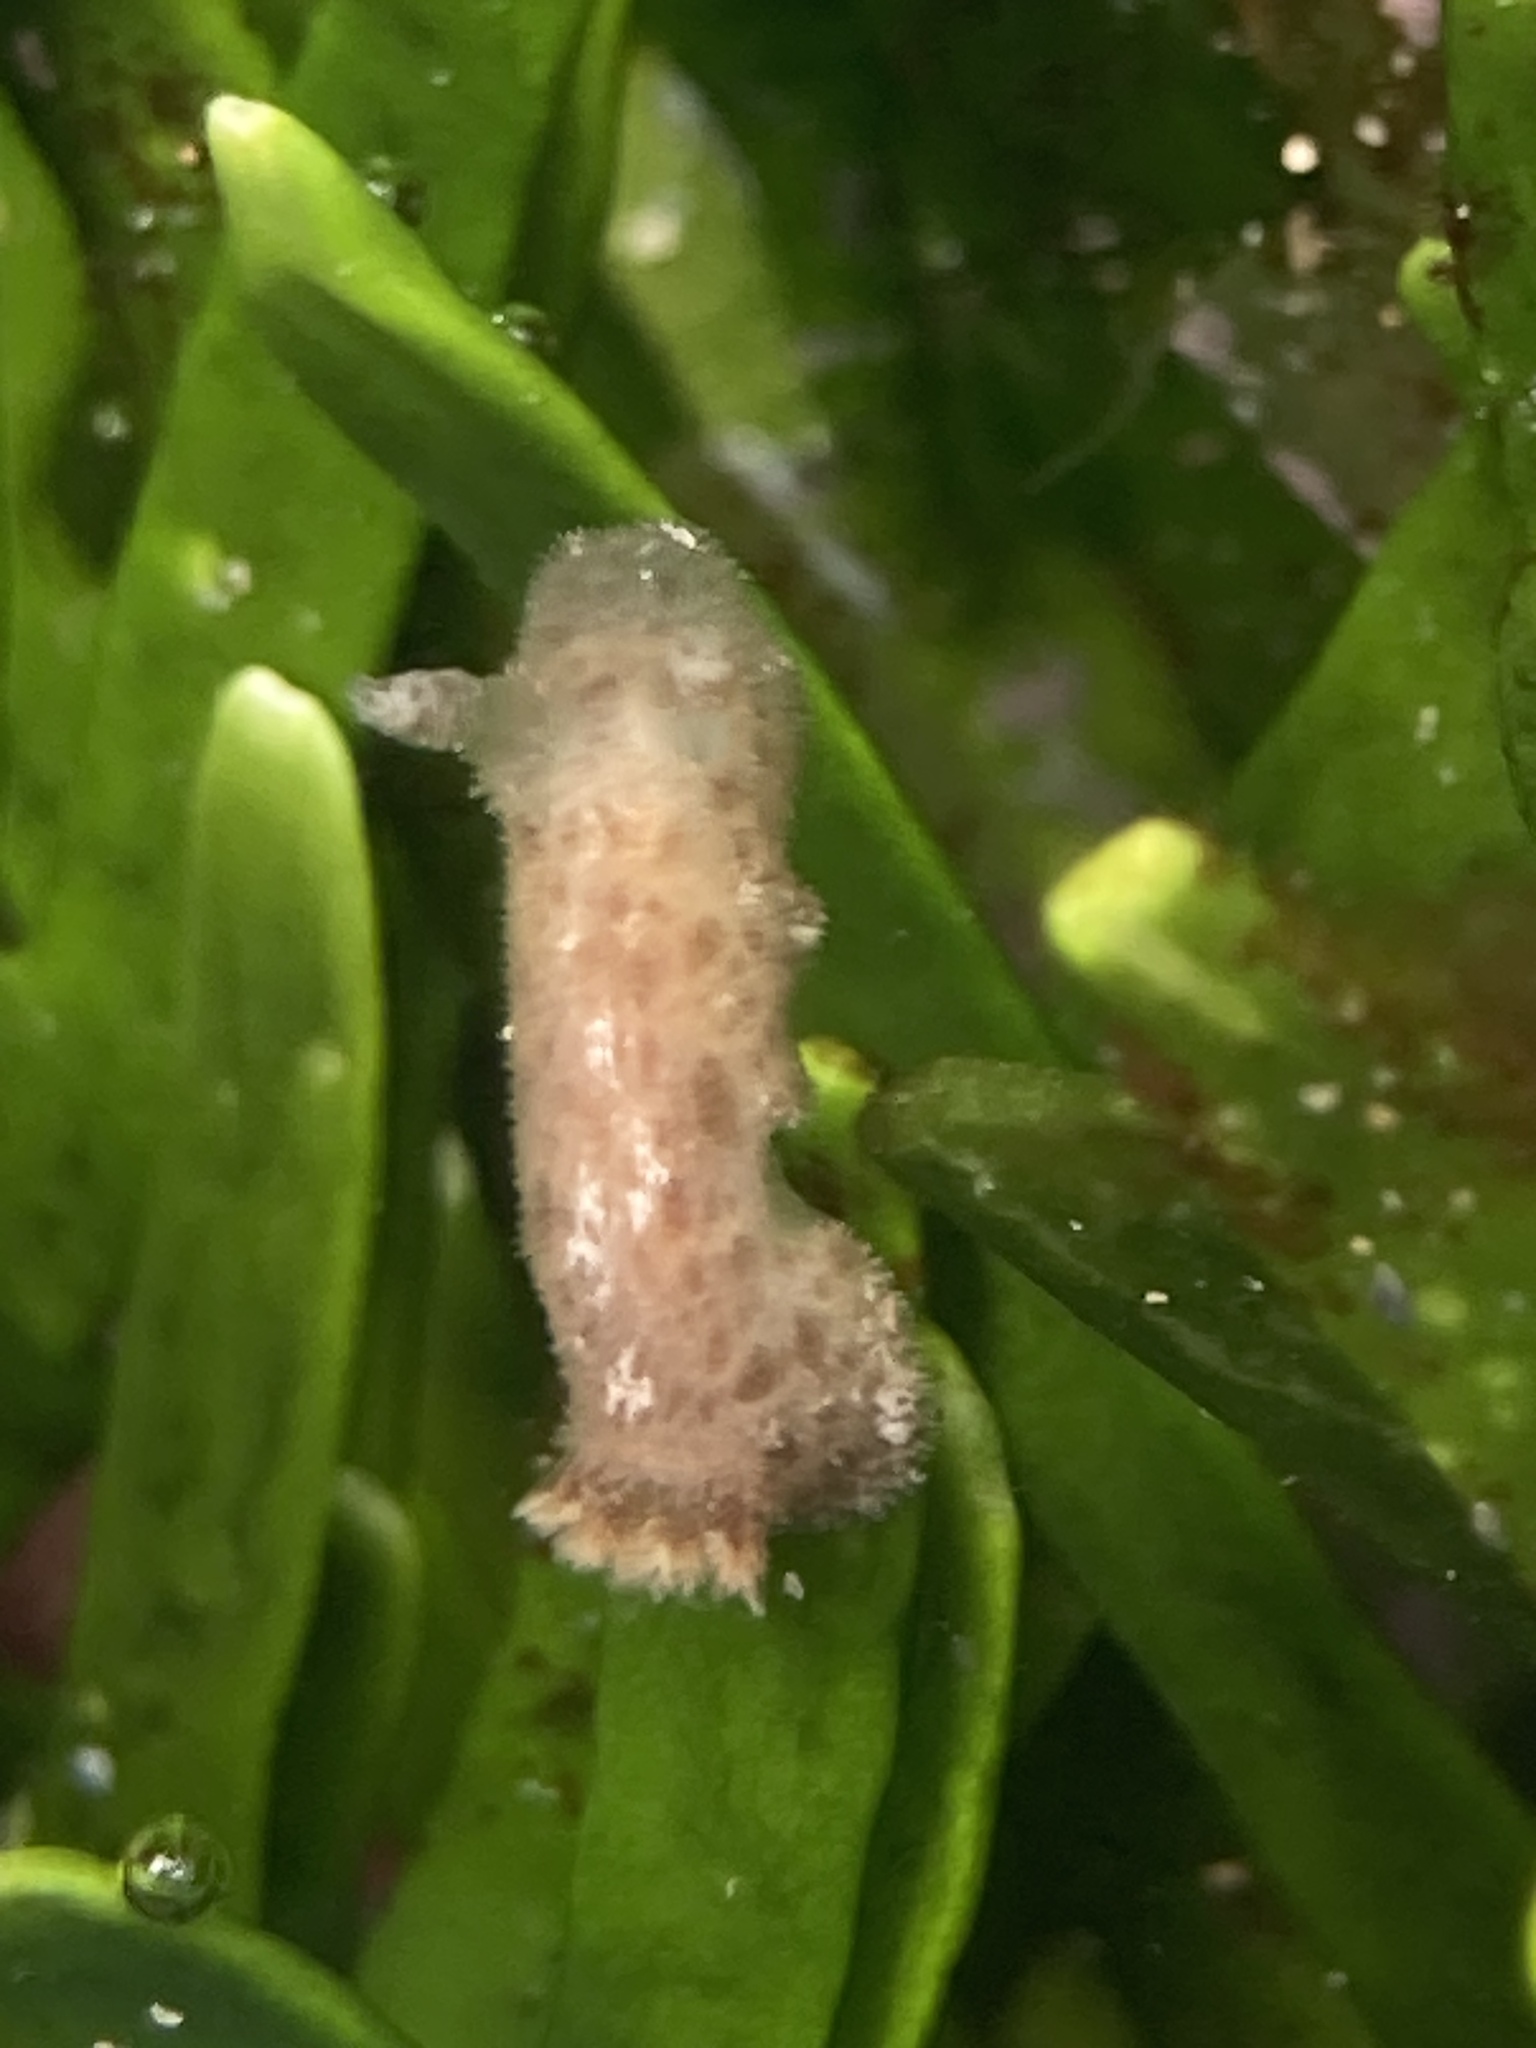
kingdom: Animalia
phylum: Mollusca
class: Gastropoda
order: Nudibranchia
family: Discodorididae
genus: Jorunna
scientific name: Jorunna pantherina
